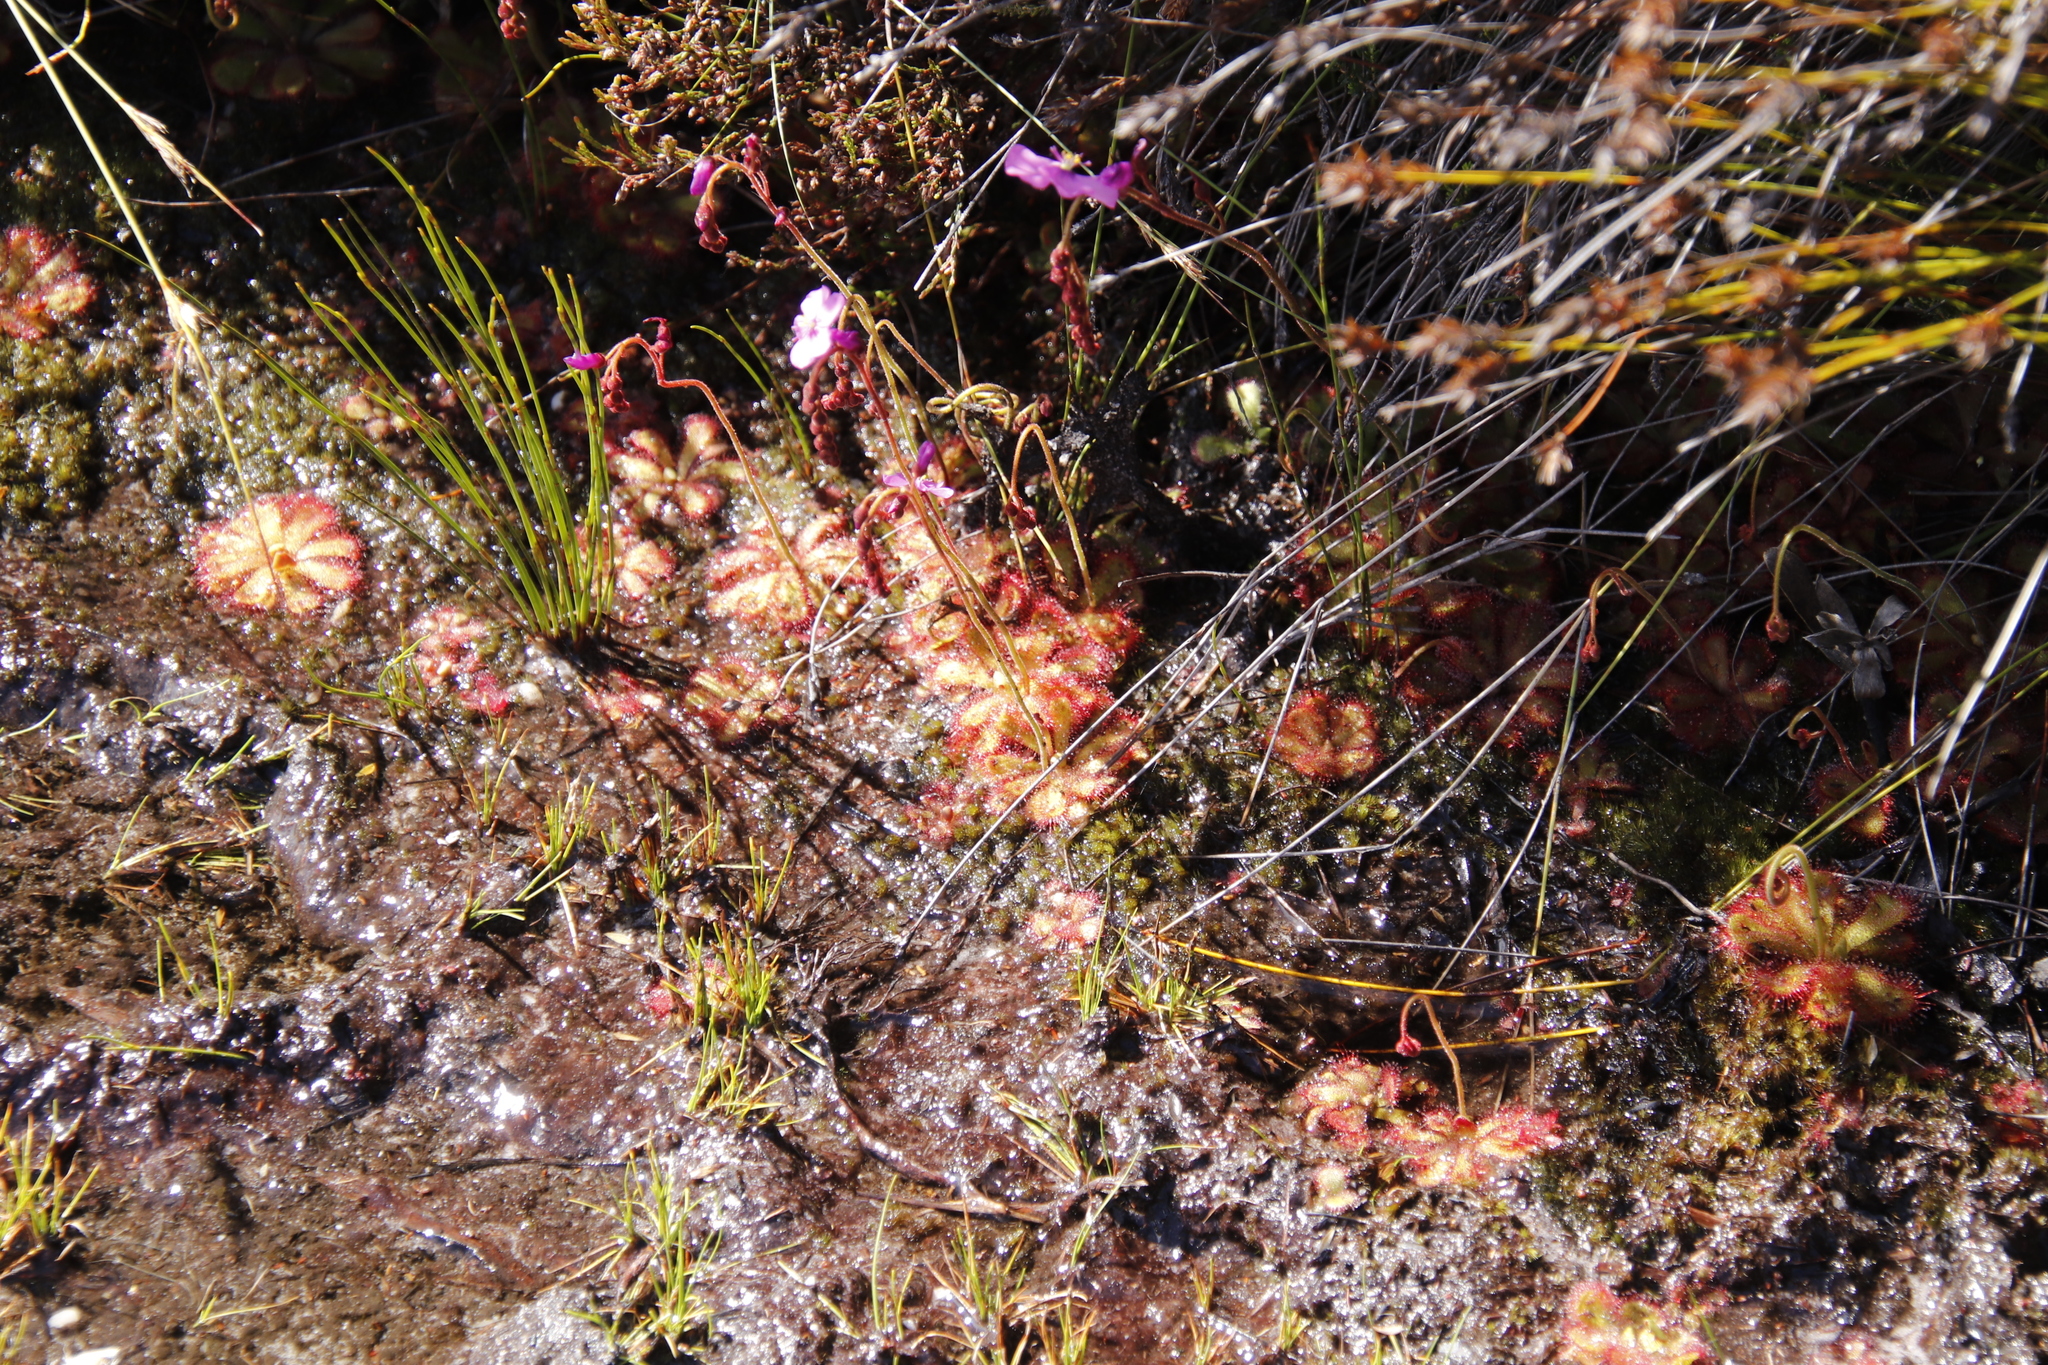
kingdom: Plantae
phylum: Tracheophyta
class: Magnoliopsida
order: Caryophyllales
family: Droseraceae
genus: Drosera
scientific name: Drosera cuneifolia
